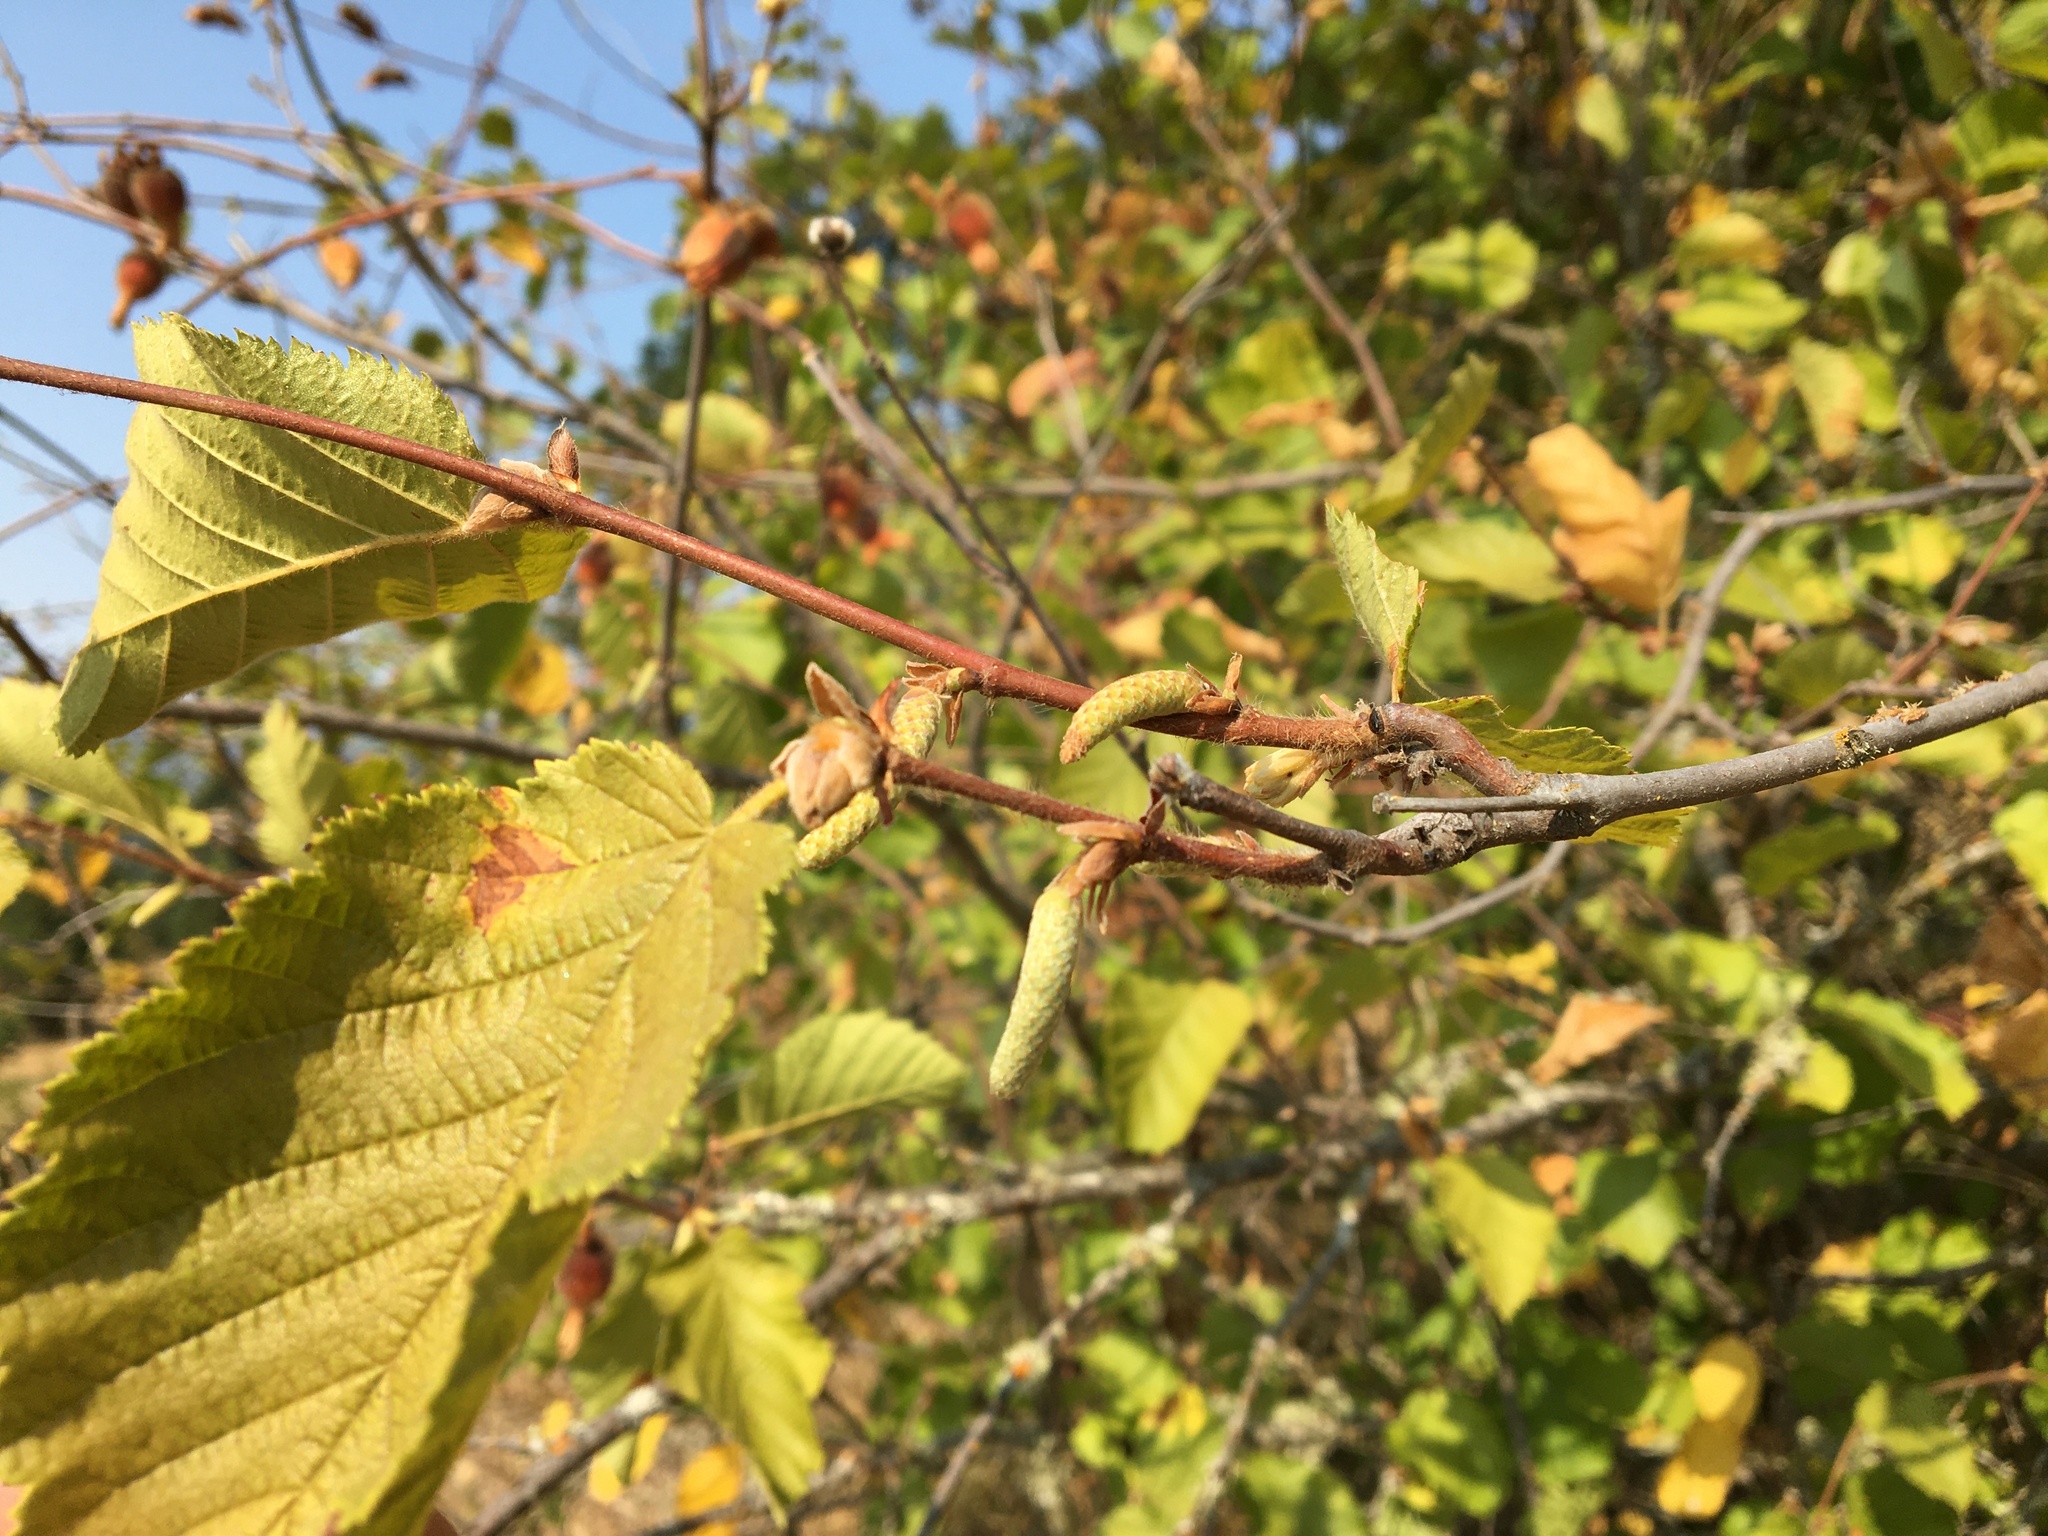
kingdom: Plantae
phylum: Tracheophyta
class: Magnoliopsida
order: Fagales
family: Betulaceae
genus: Corylus
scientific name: Corylus cornuta
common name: Beaked hazel
